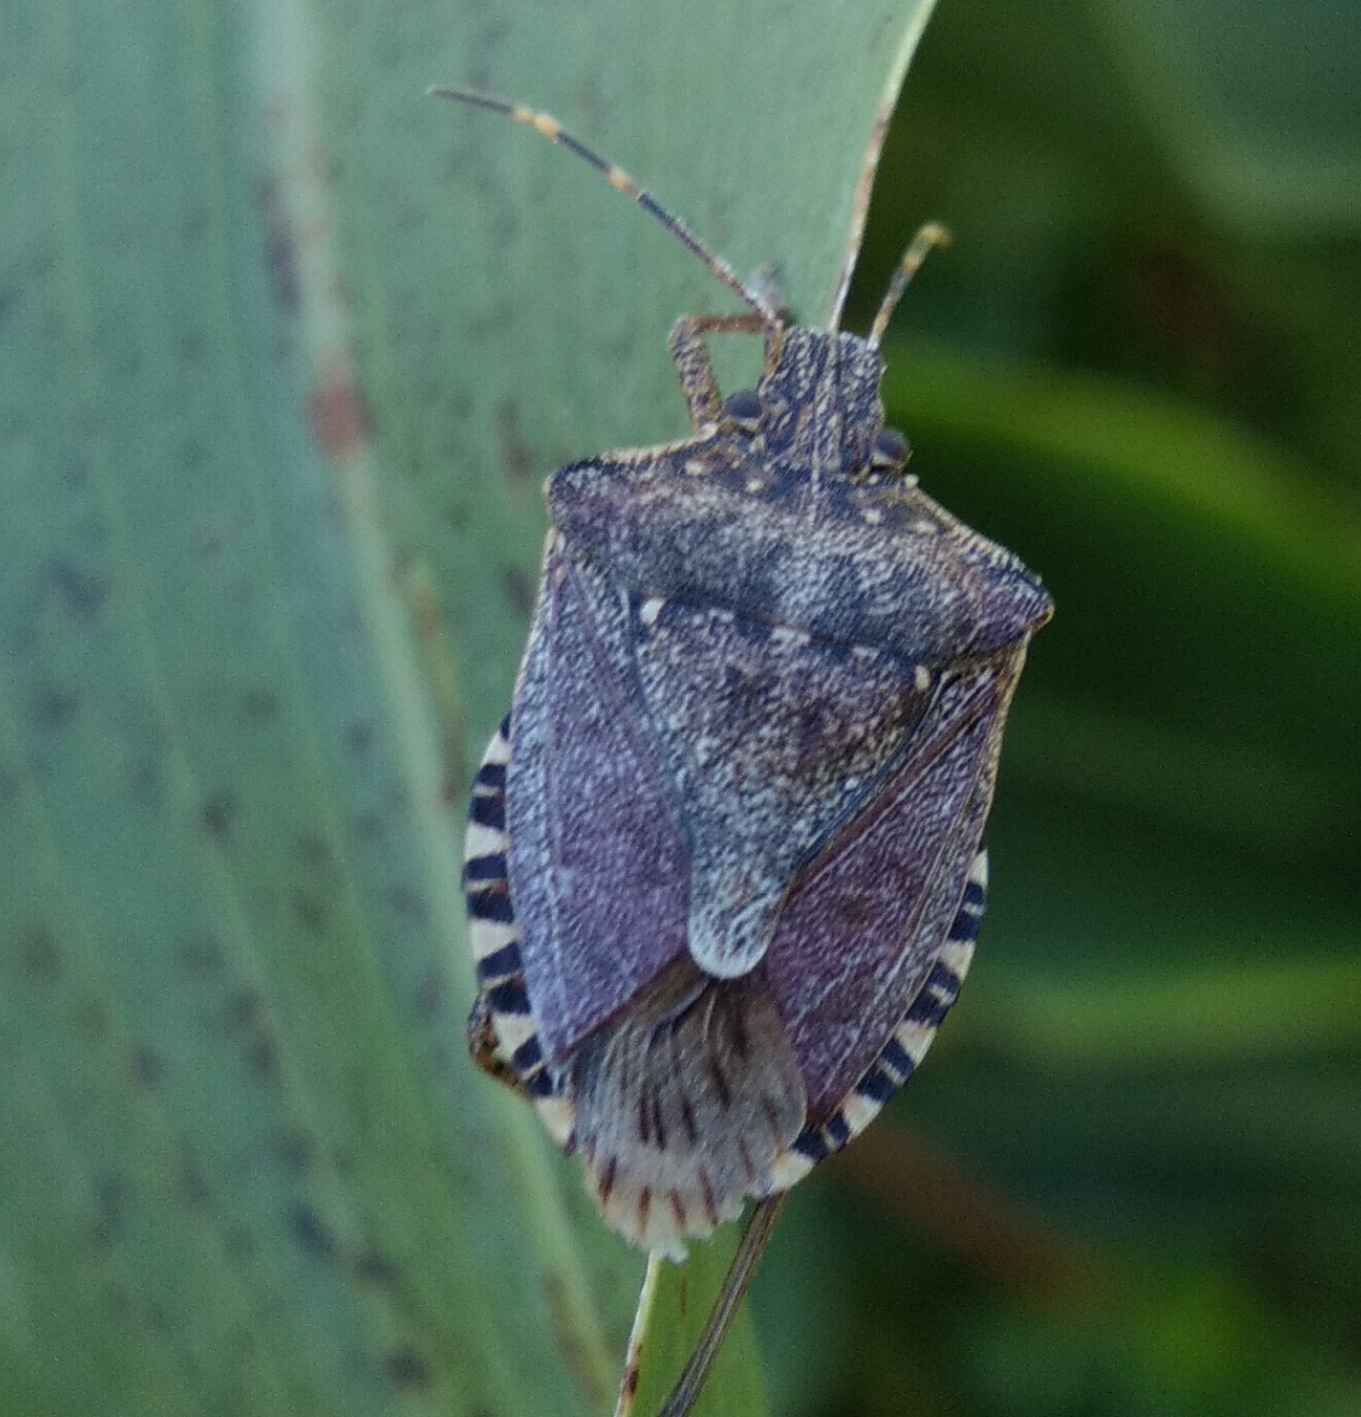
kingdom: Animalia
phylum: Arthropoda
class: Insecta
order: Hemiptera
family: Pentatomidae
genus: Halyomorpha
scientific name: Halyomorpha halys
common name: Brown marmorated stink bug
